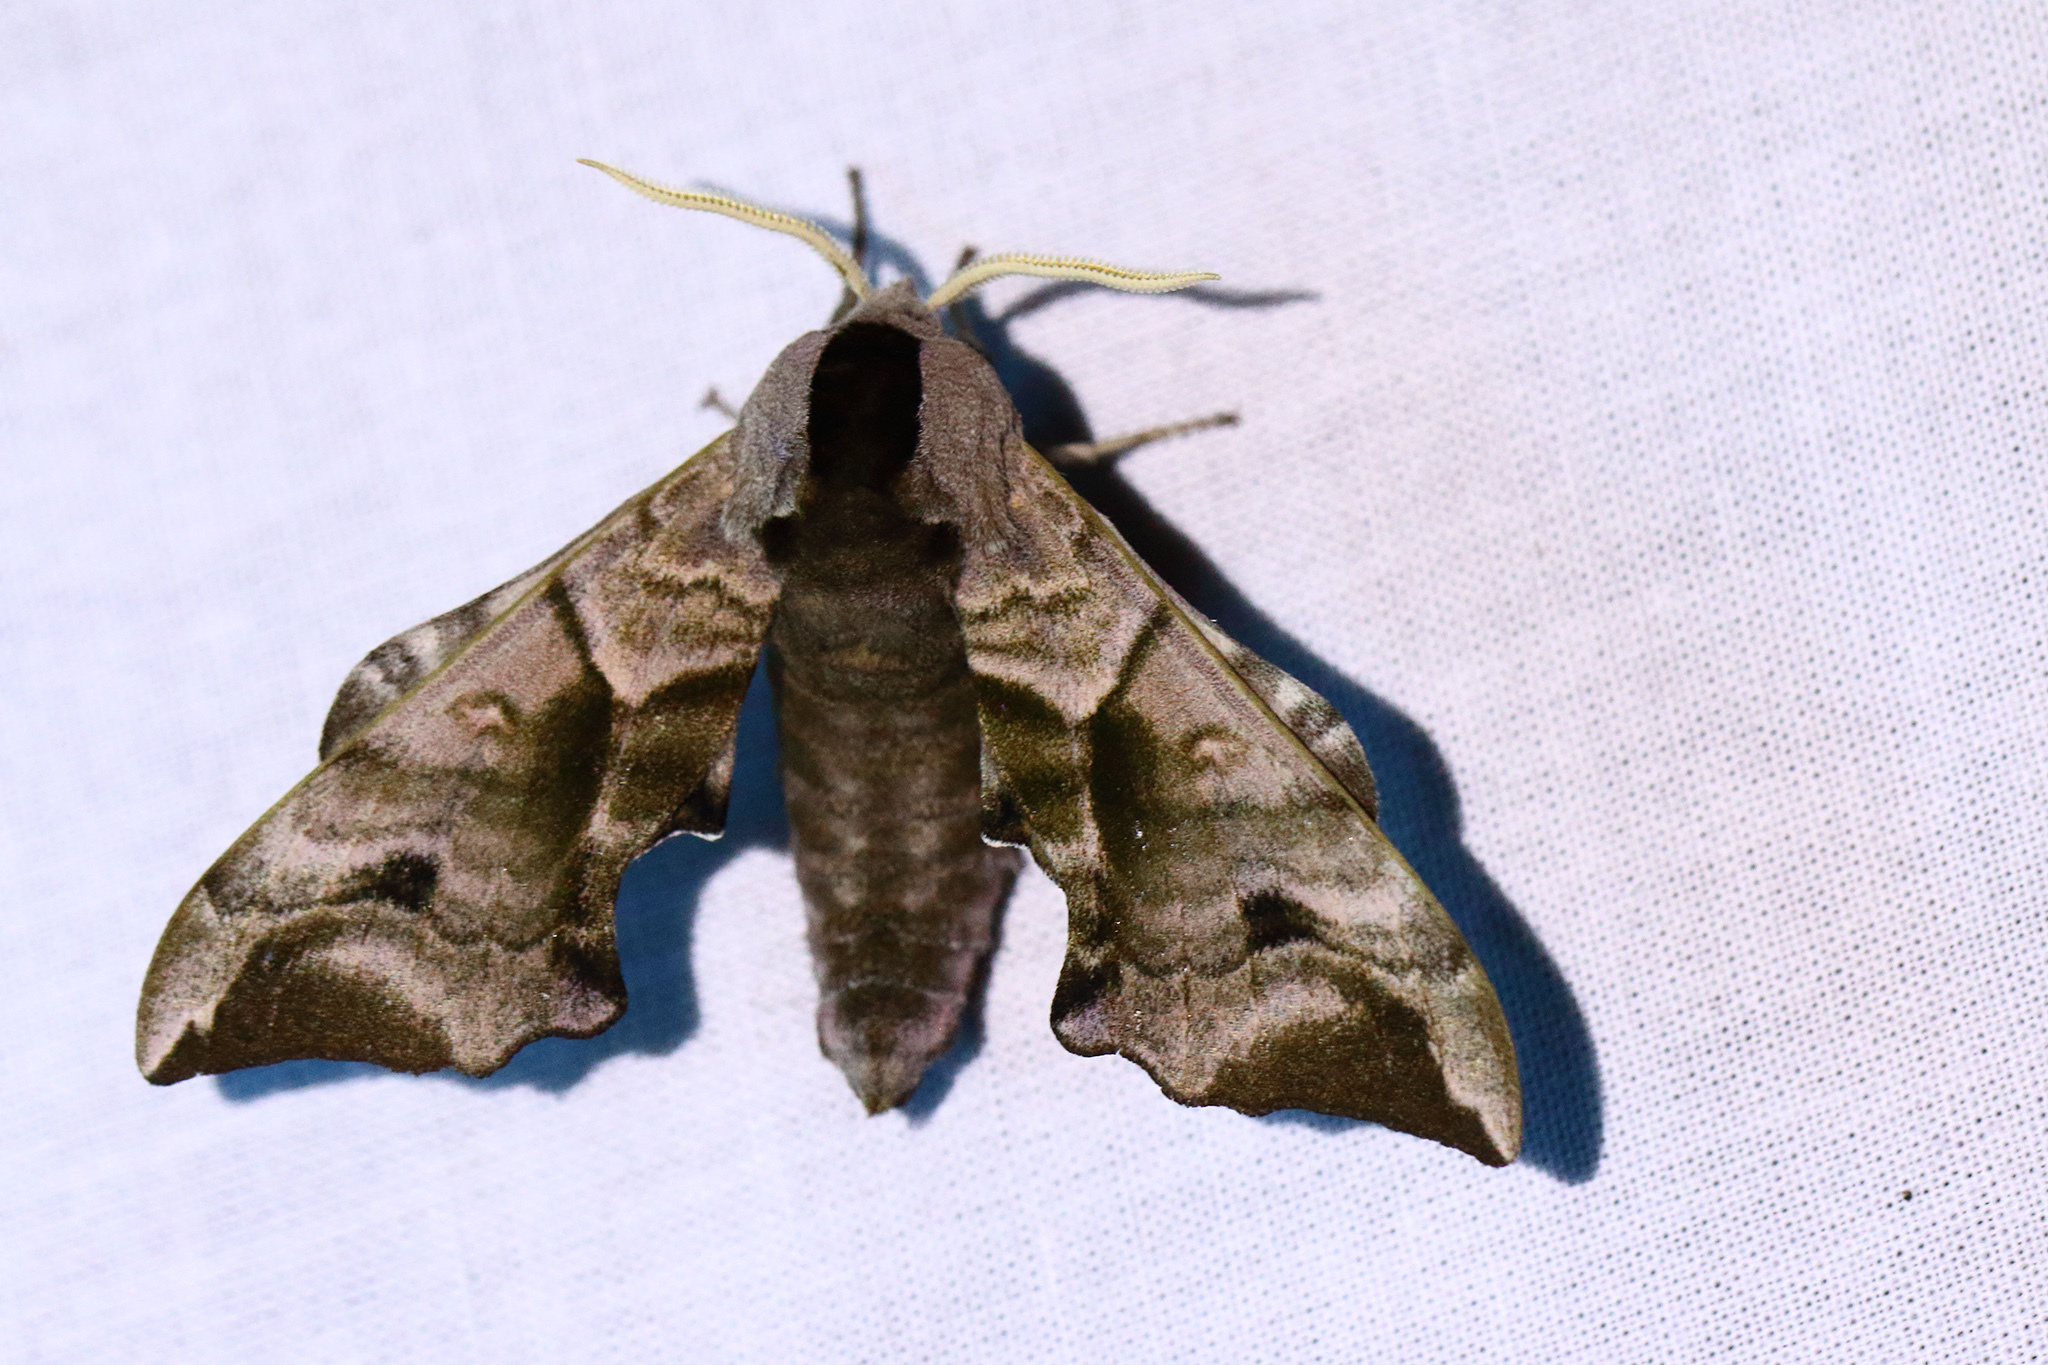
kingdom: Animalia
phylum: Arthropoda
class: Insecta
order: Lepidoptera
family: Sphingidae
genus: Smerinthus
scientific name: Smerinthus ocellata
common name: Eyed hawk-moth
